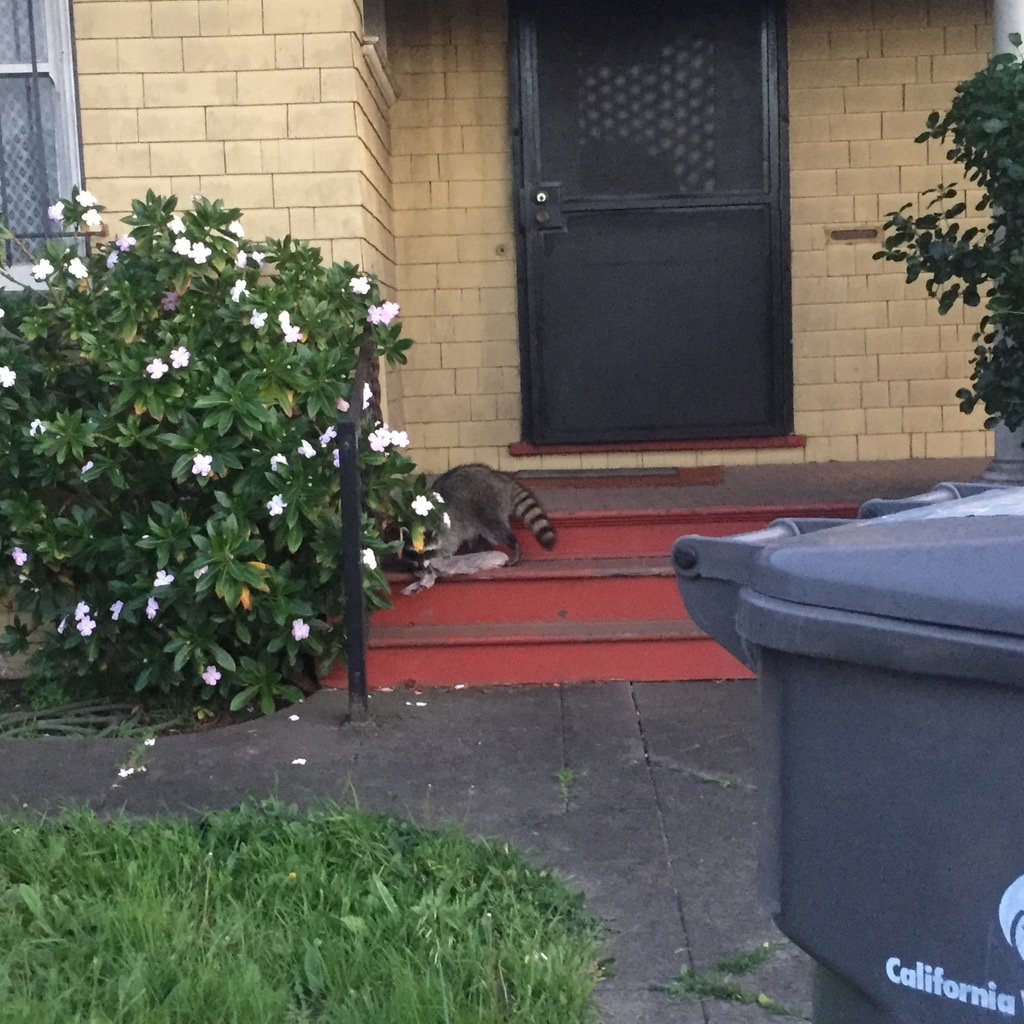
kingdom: Animalia
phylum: Chordata
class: Mammalia
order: Carnivora
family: Procyonidae
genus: Procyon
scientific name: Procyon lotor
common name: Raccoon
